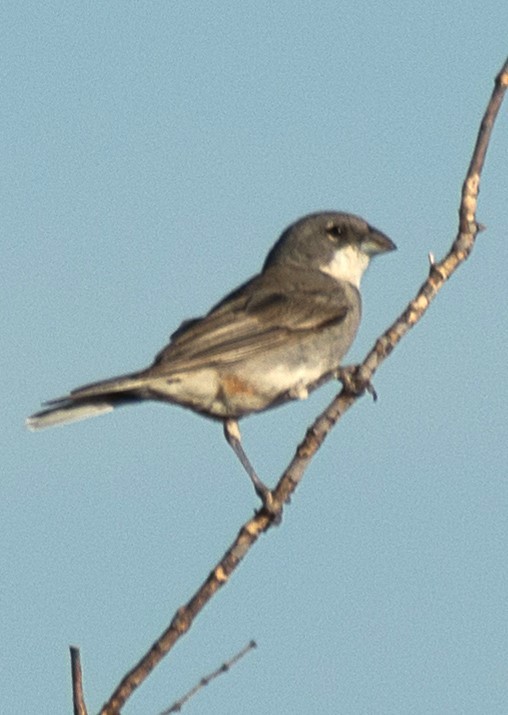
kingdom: Animalia
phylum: Chordata
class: Aves
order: Passeriformes
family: Thraupidae
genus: Diuca
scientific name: Diuca diuca
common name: Common diuca finch
